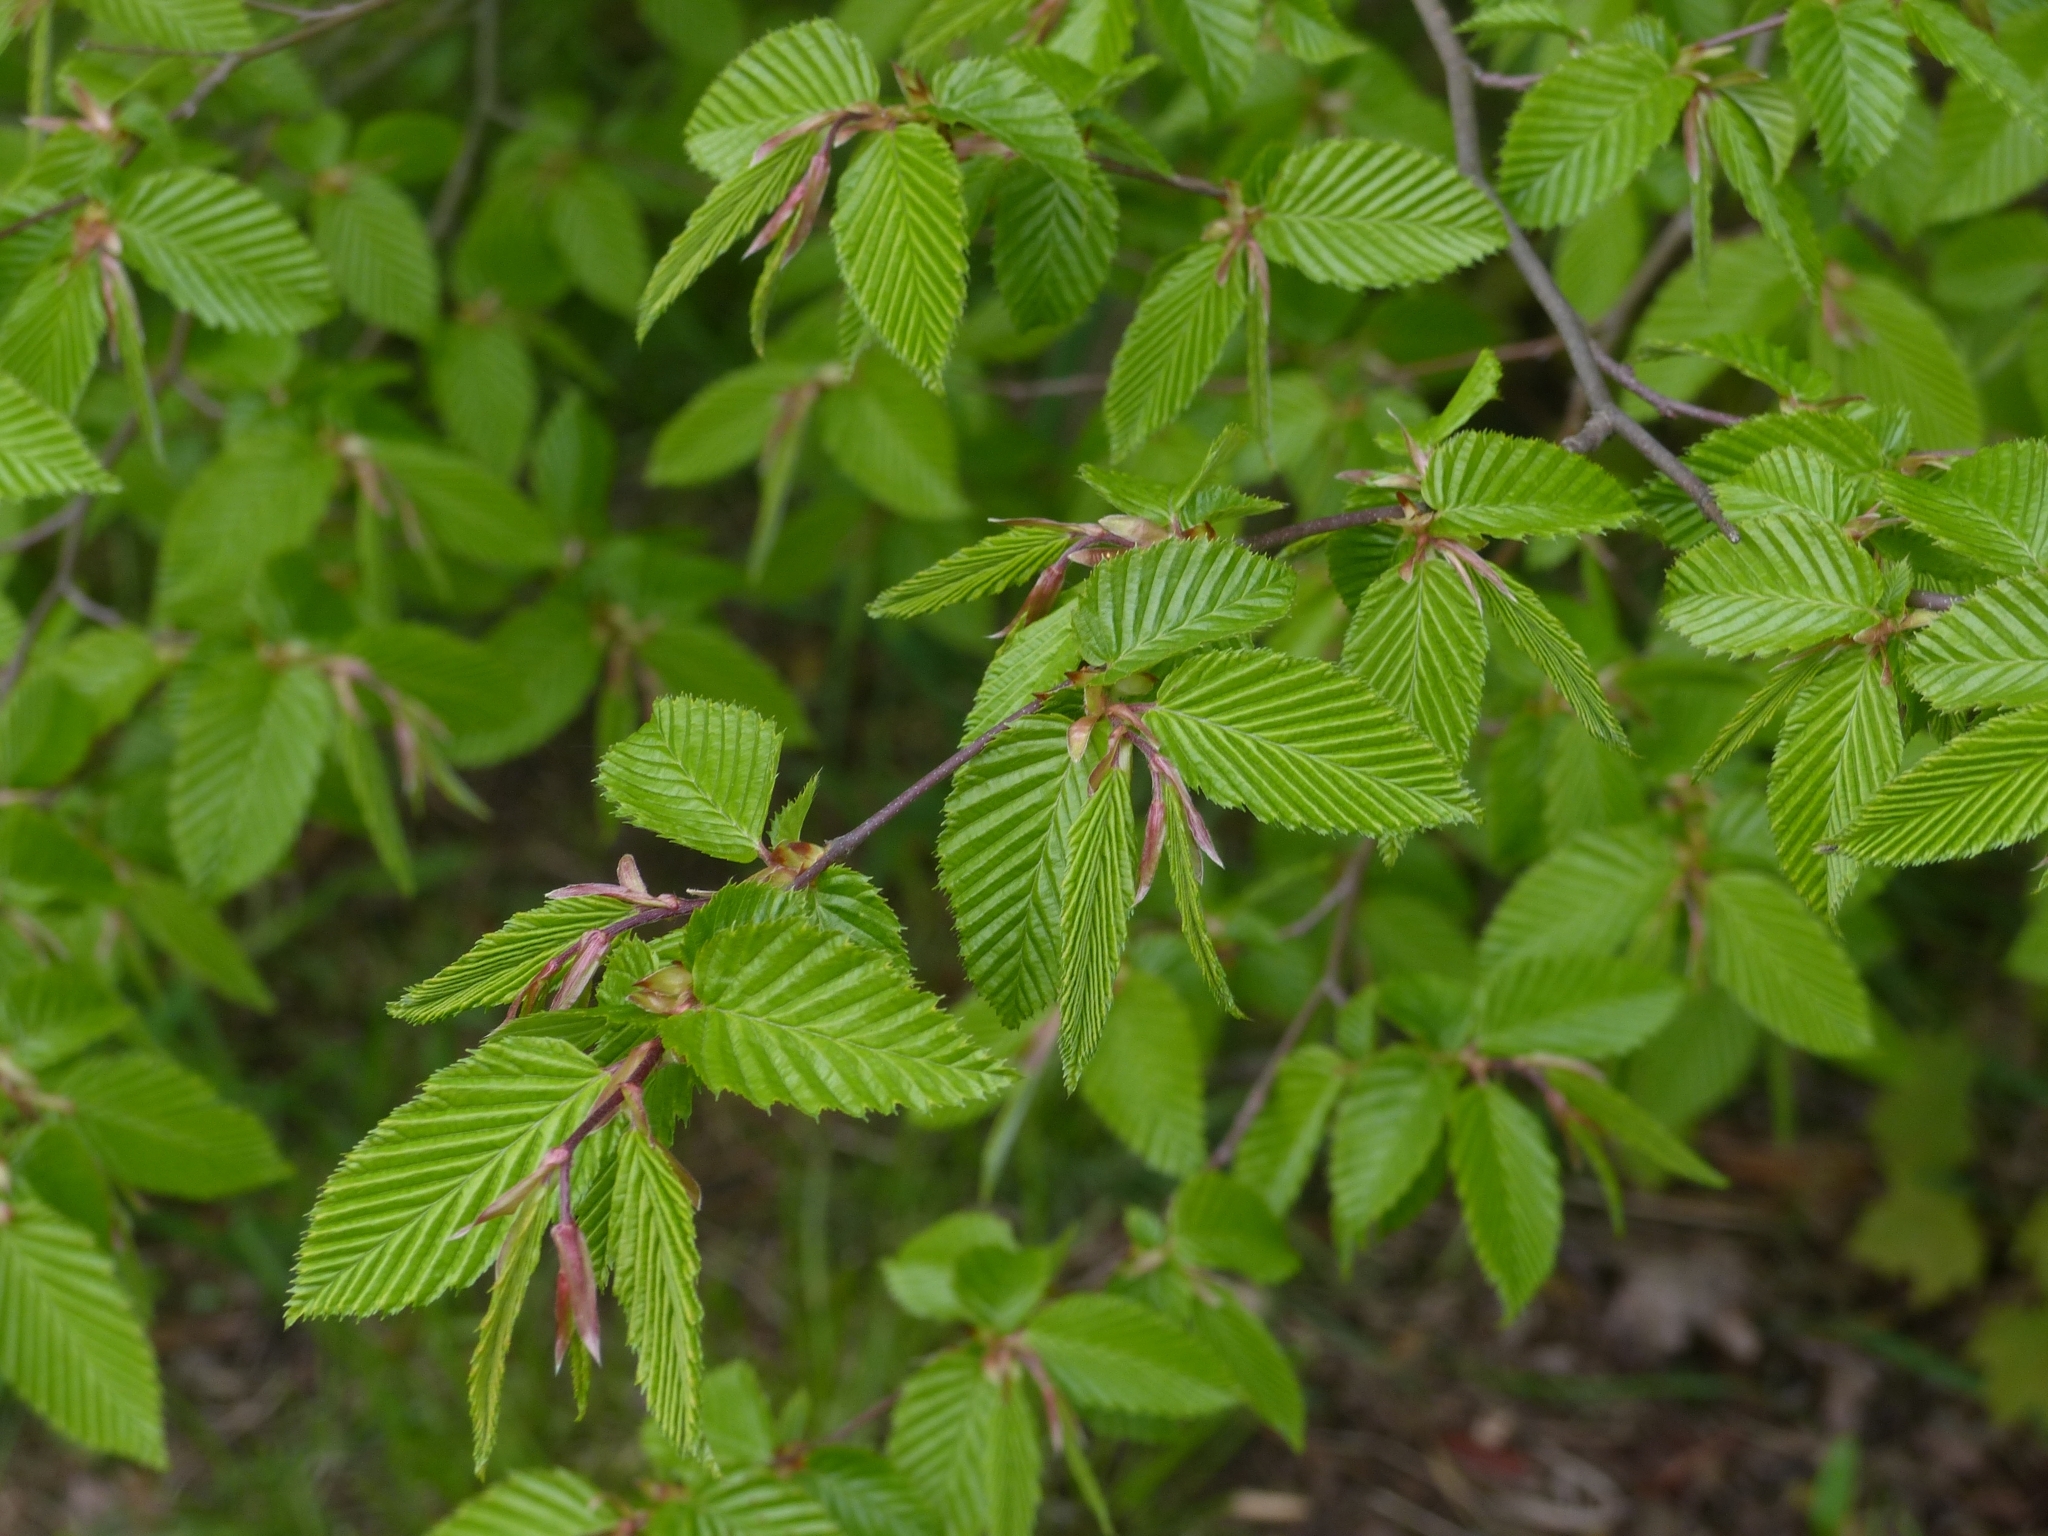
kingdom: Plantae
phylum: Tracheophyta
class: Magnoliopsida
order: Fagales
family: Betulaceae
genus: Carpinus
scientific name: Carpinus betulus
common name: Hornbeam
